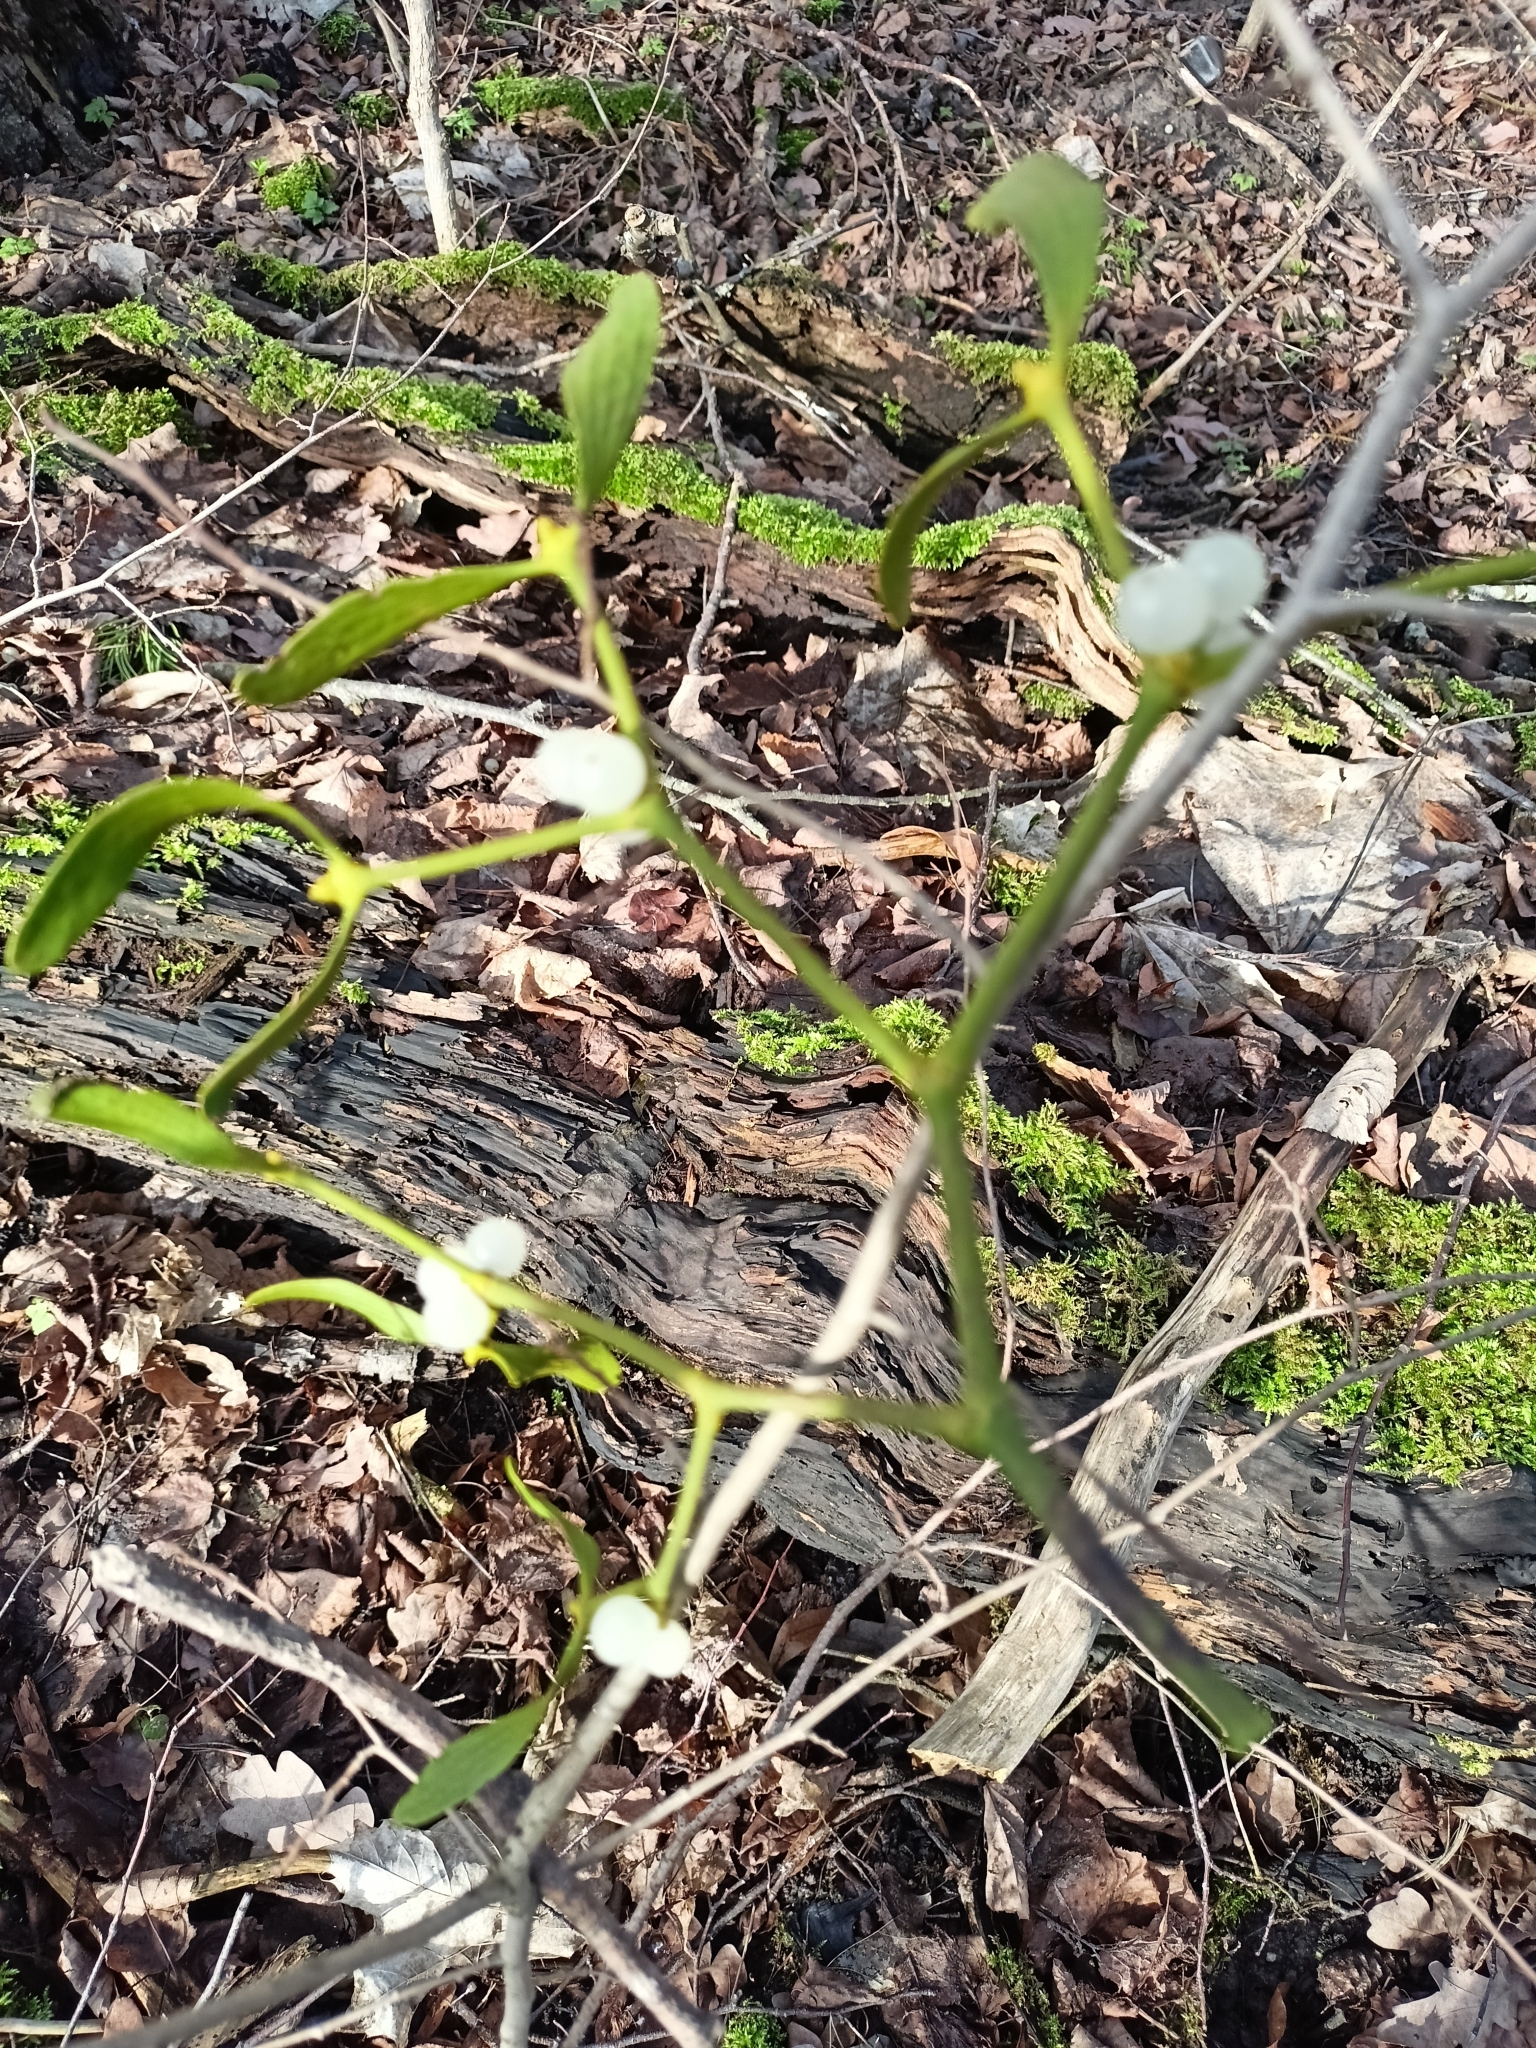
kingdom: Plantae
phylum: Tracheophyta
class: Magnoliopsida
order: Santalales
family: Viscaceae
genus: Viscum
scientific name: Viscum album
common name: Mistletoe
